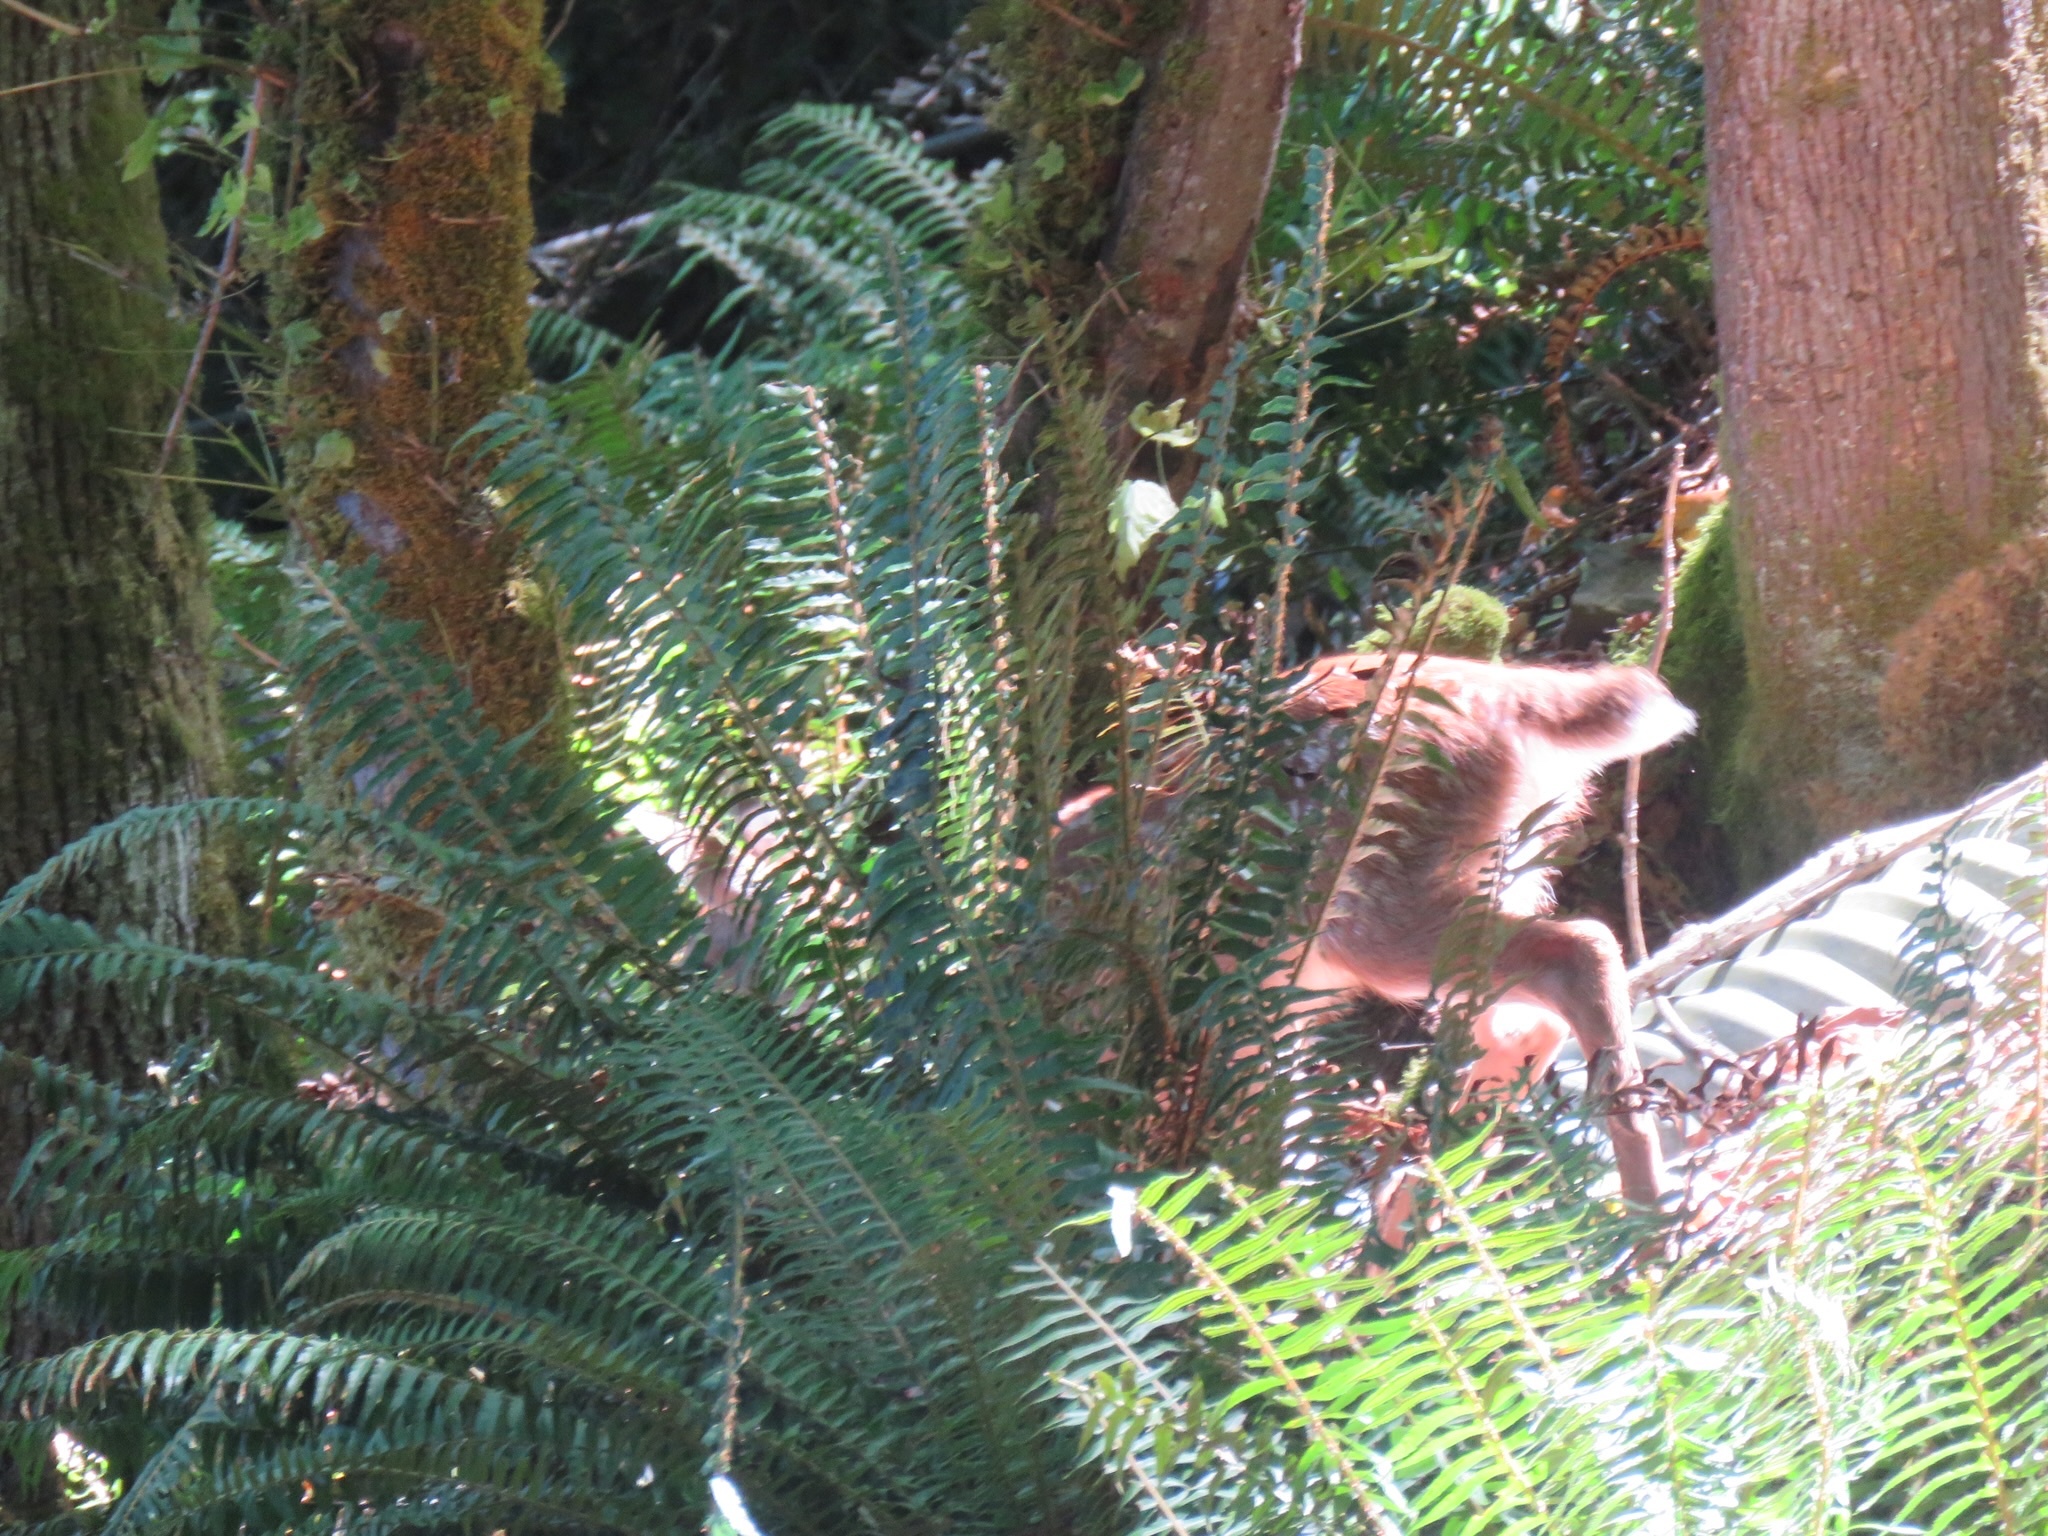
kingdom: Animalia
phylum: Chordata
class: Mammalia
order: Artiodactyla
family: Cervidae
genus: Odocoileus
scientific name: Odocoileus hemionus
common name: Mule deer
